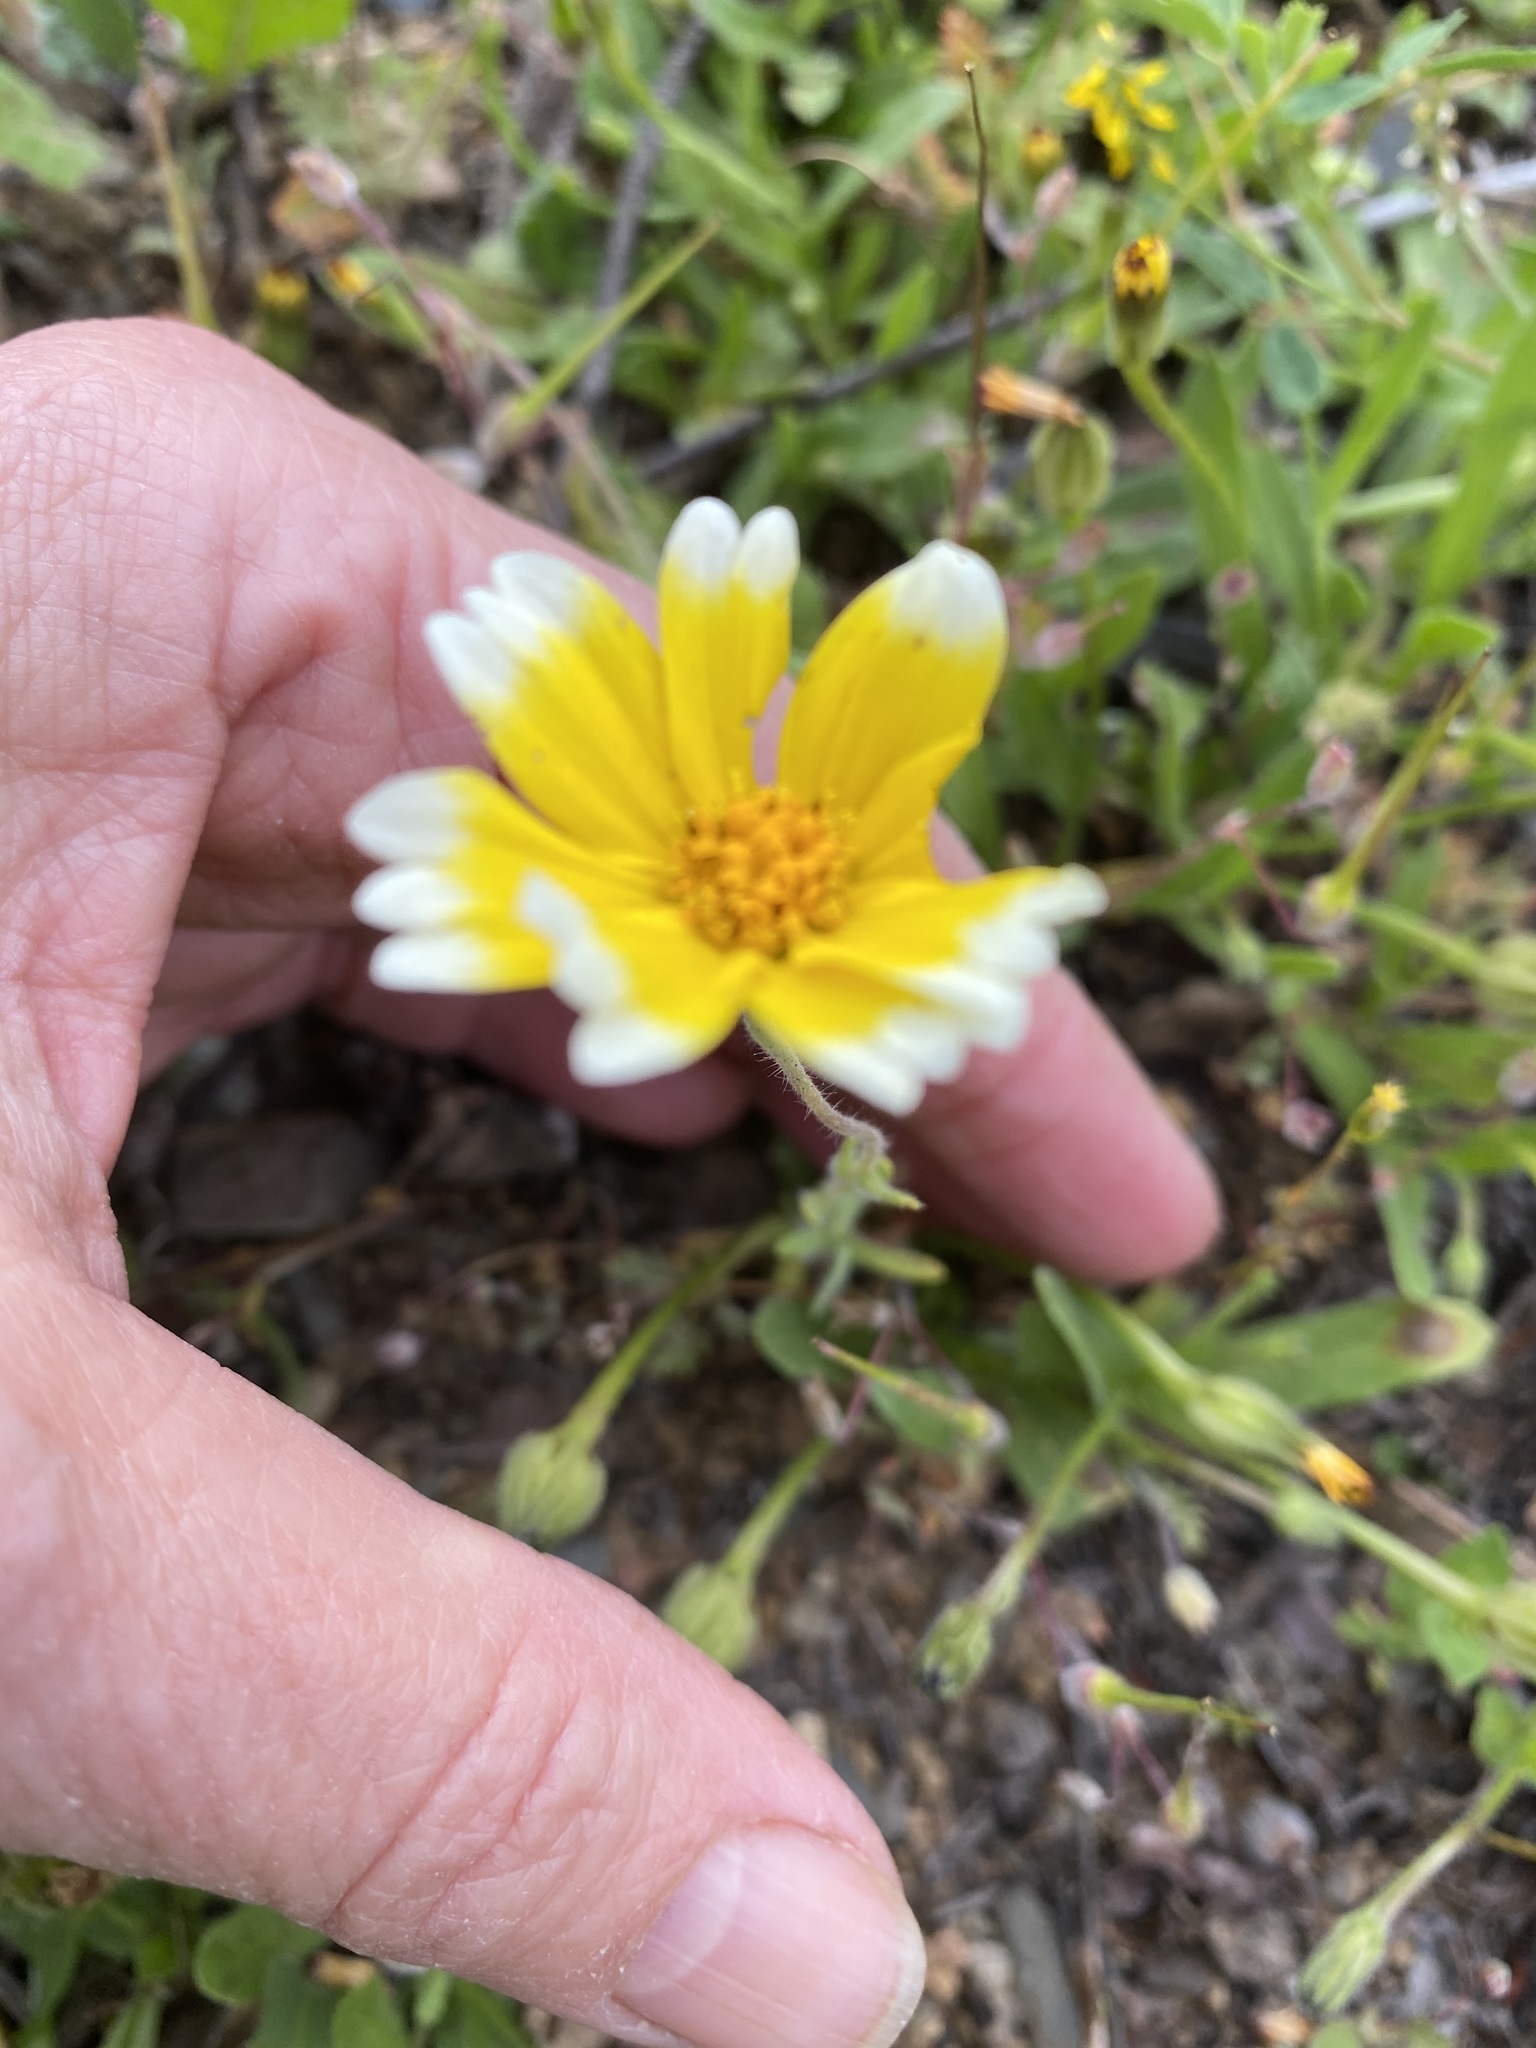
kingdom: Plantae
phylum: Tracheophyta
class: Magnoliopsida
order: Asterales
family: Asteraceae
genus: Layia
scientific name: Layia platyglossa
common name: Tidy-tips
